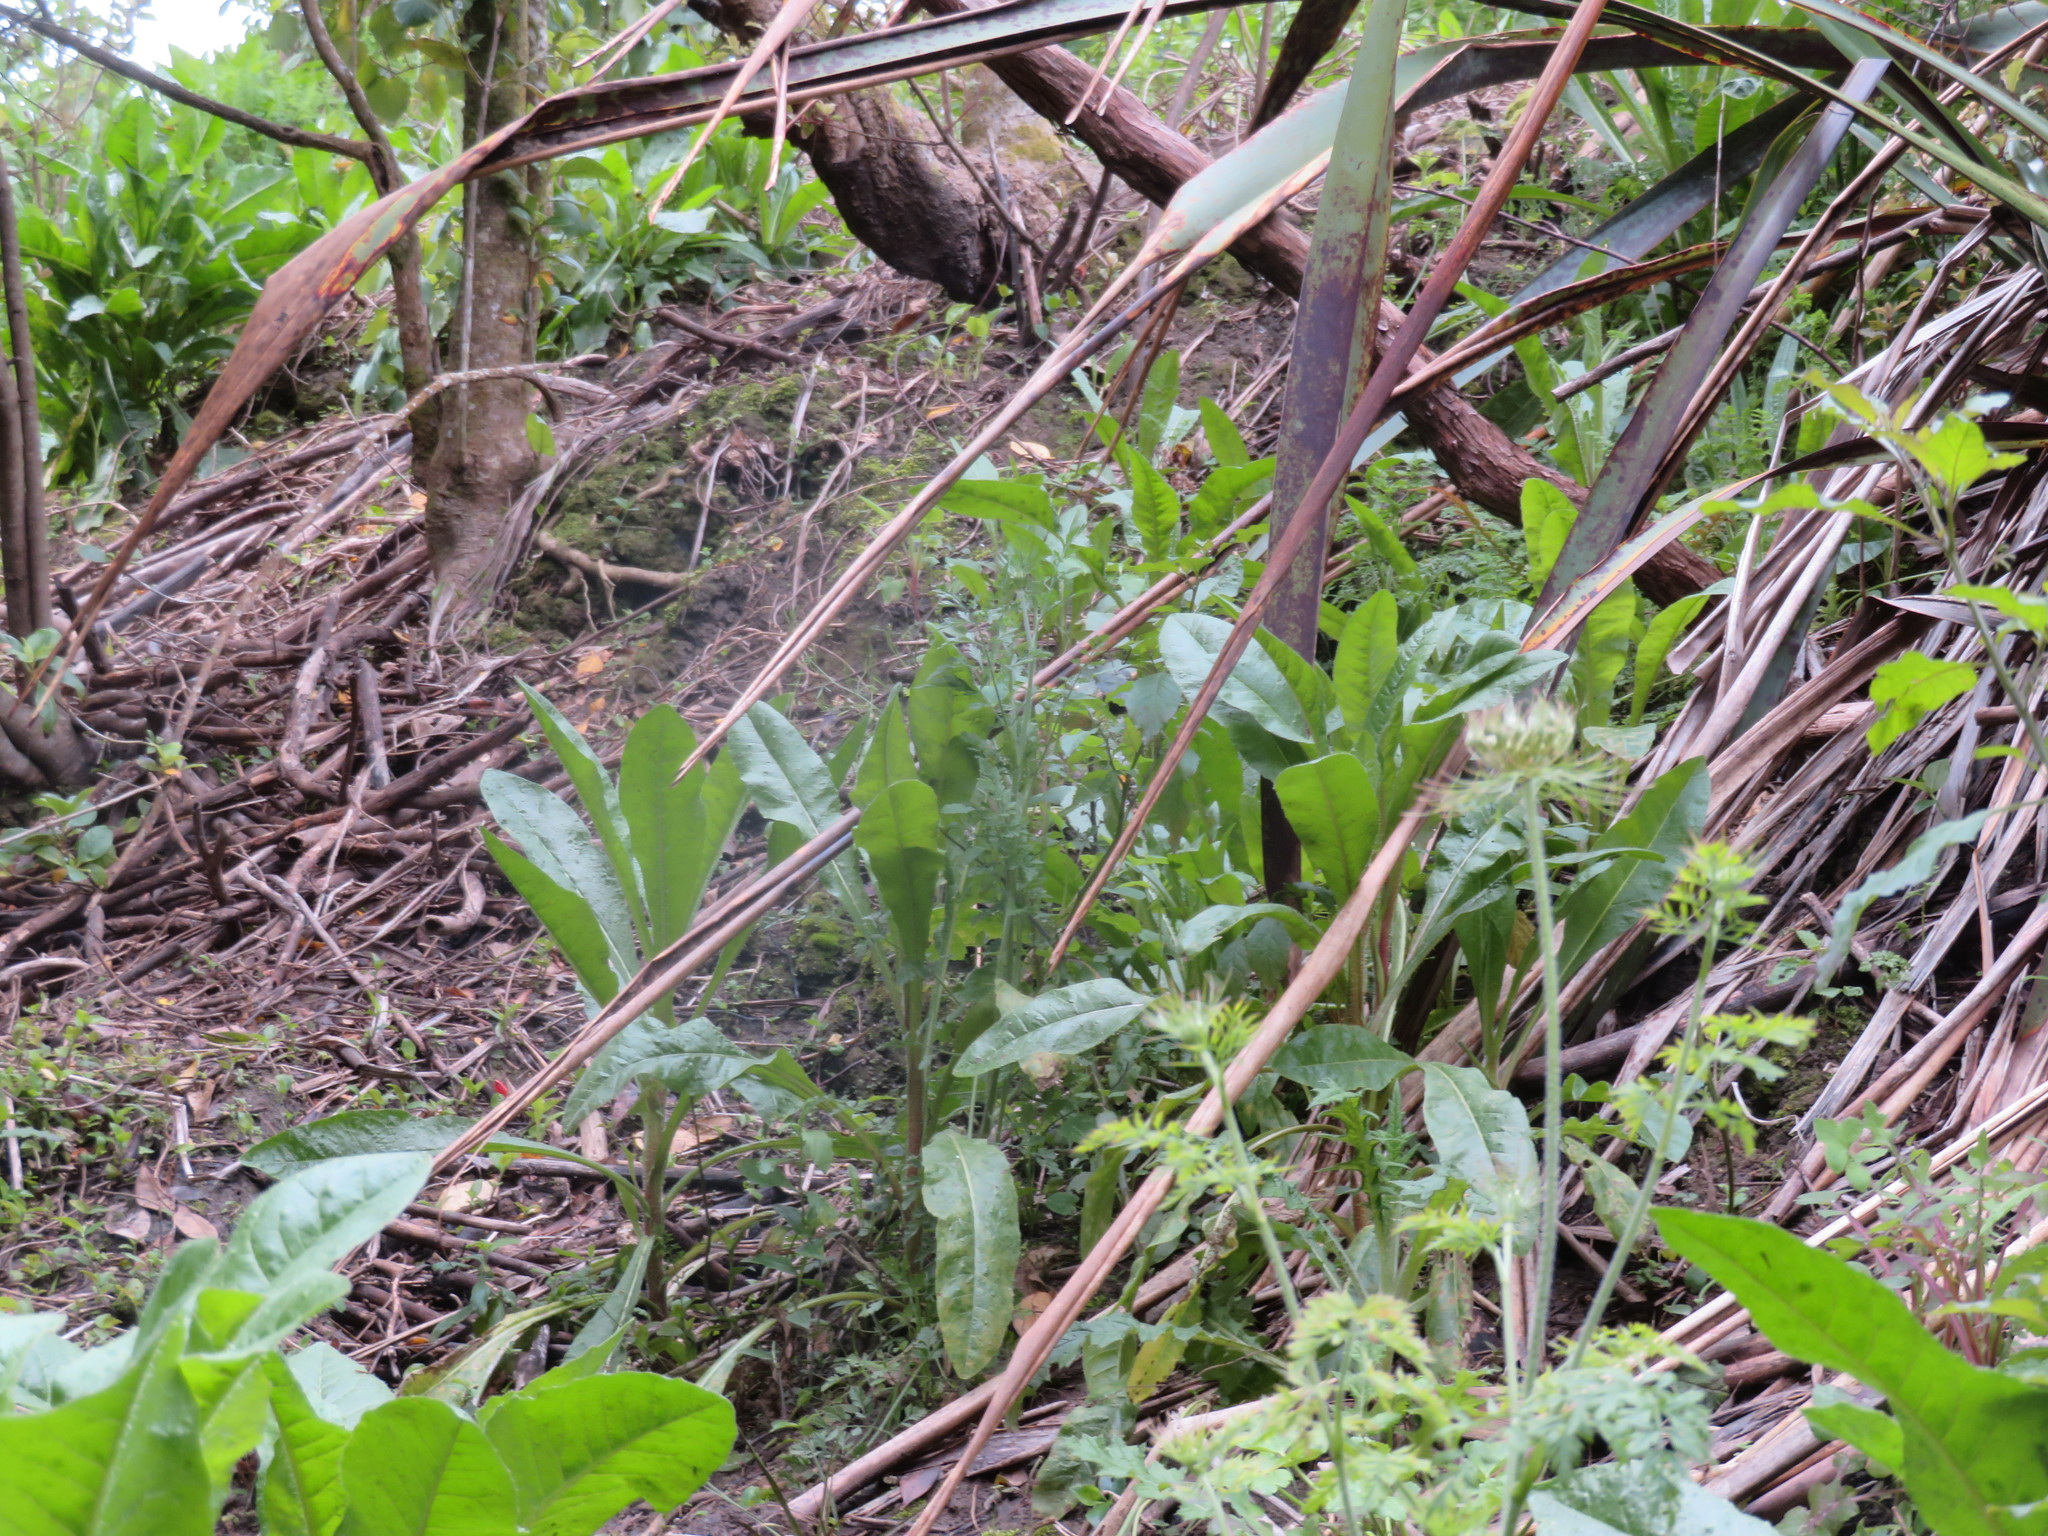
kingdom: Plantae
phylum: Tracheophyta
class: Magnoliopsida
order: Apiales
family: Apiaceae
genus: Daucus
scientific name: Daucus carota
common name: Wild carrot
